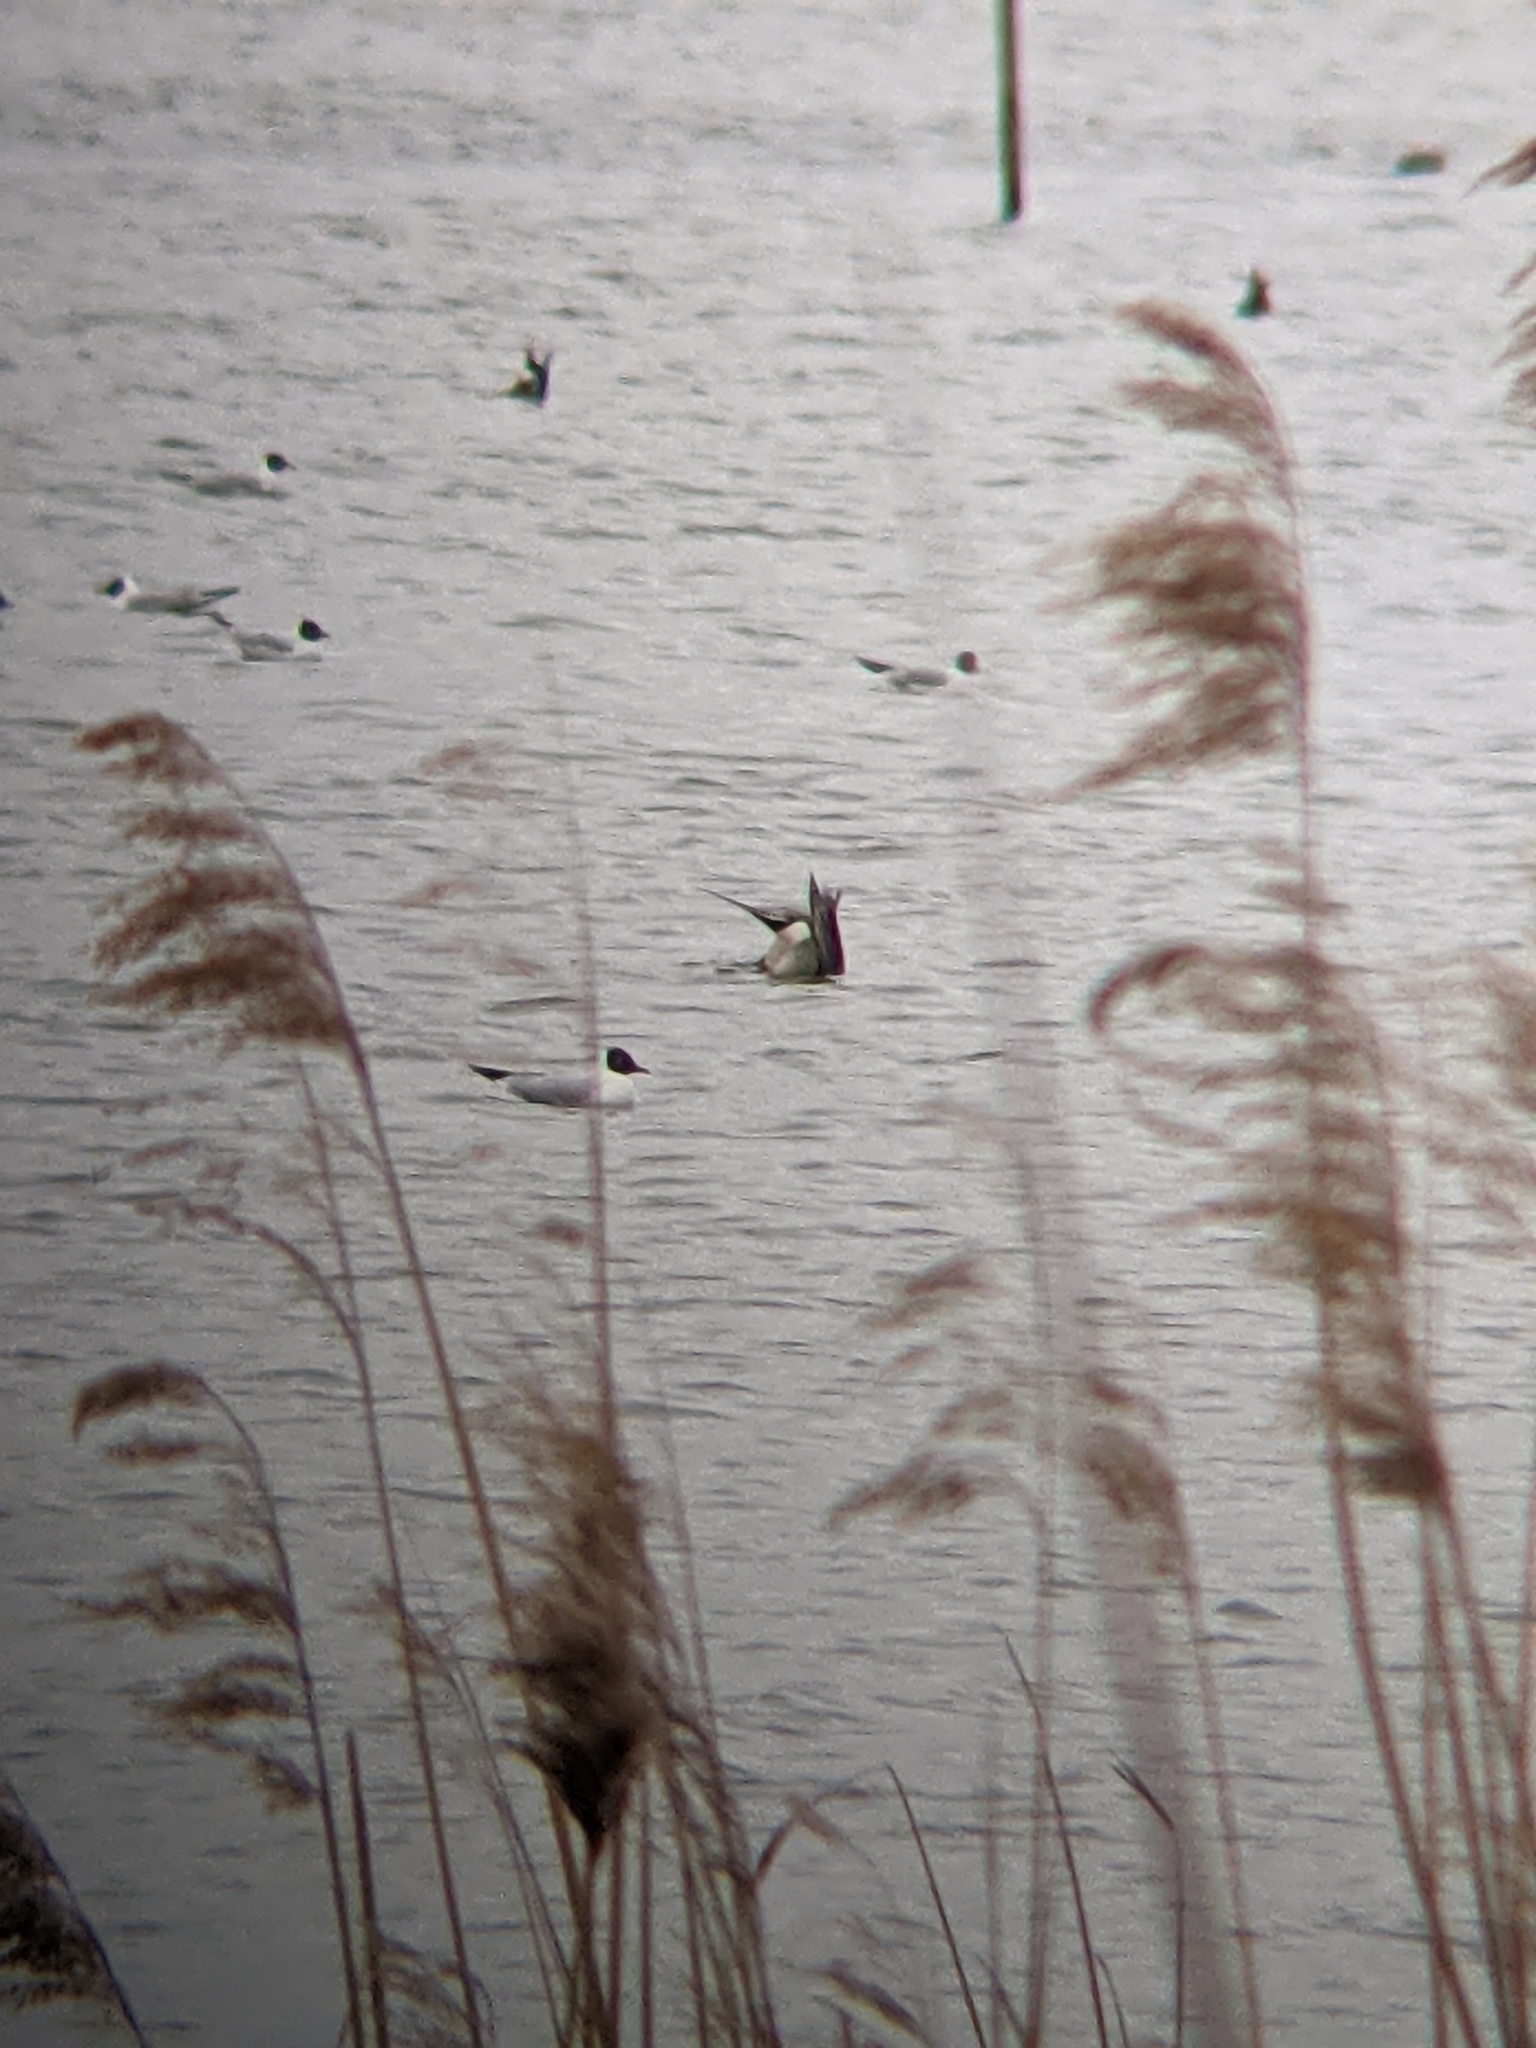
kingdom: Animalia
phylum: Chordata
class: Aves
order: Charadriiformes
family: Laridae
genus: Chroicocephalus
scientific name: Chroicocephalus ridibundus
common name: Black-headed gull
